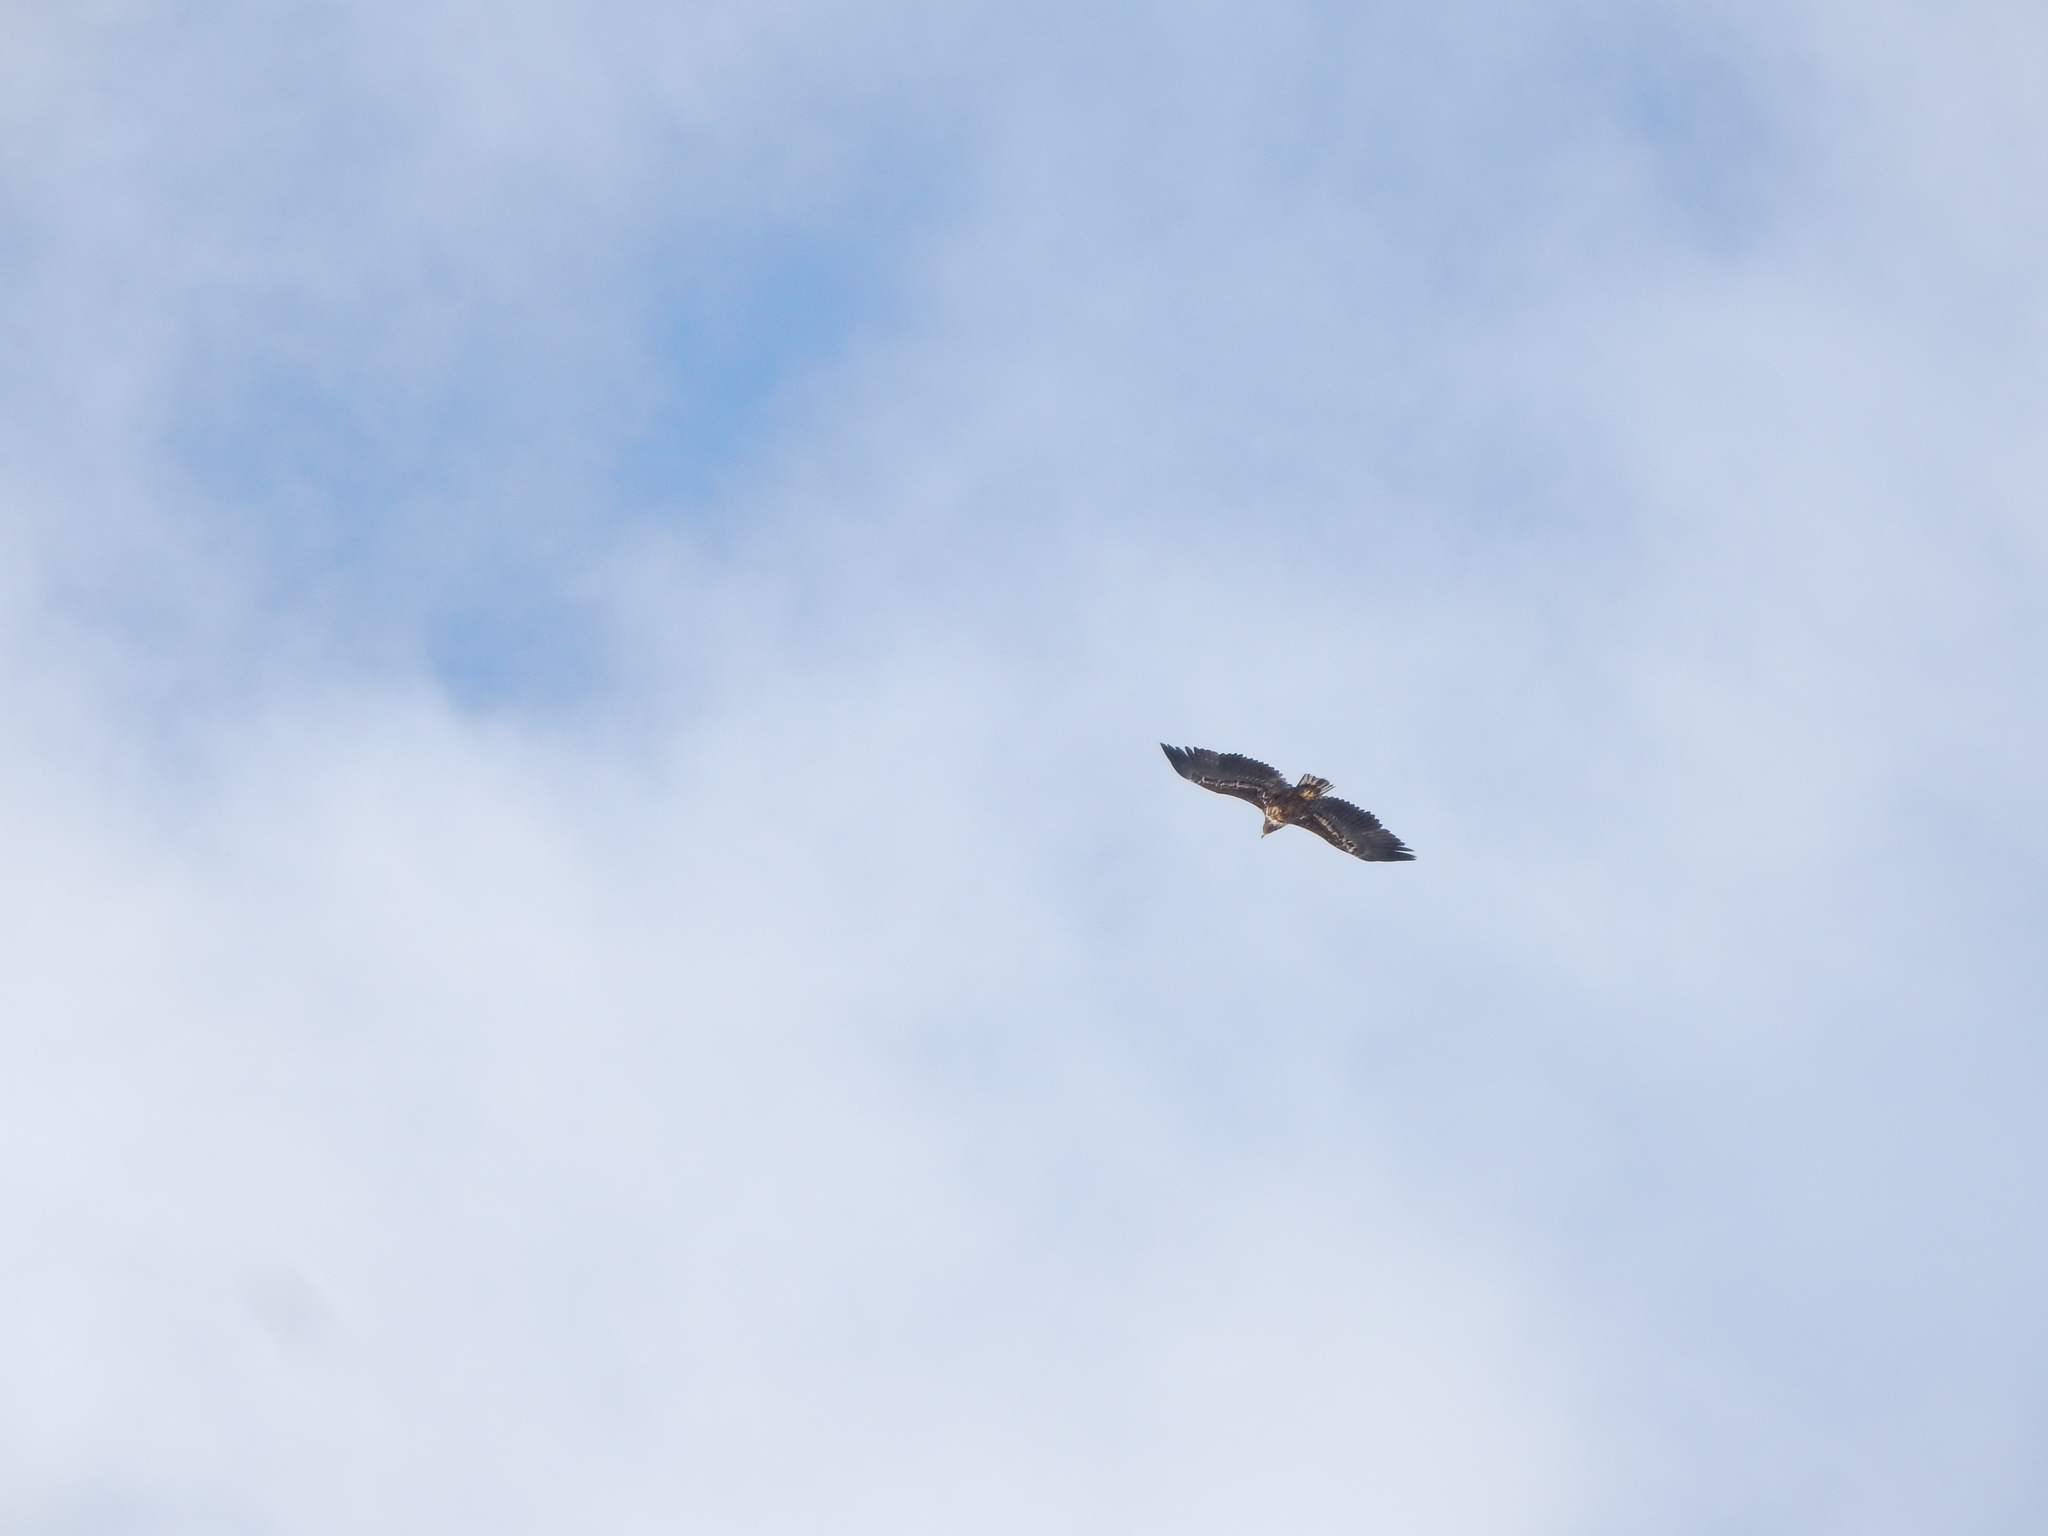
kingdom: Animalia
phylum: Chordata
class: Aves
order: Accipitriformes
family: Accipitridae
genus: Haliaeetus
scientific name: Haliaeetus albicilla
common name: White-tailed eagle
